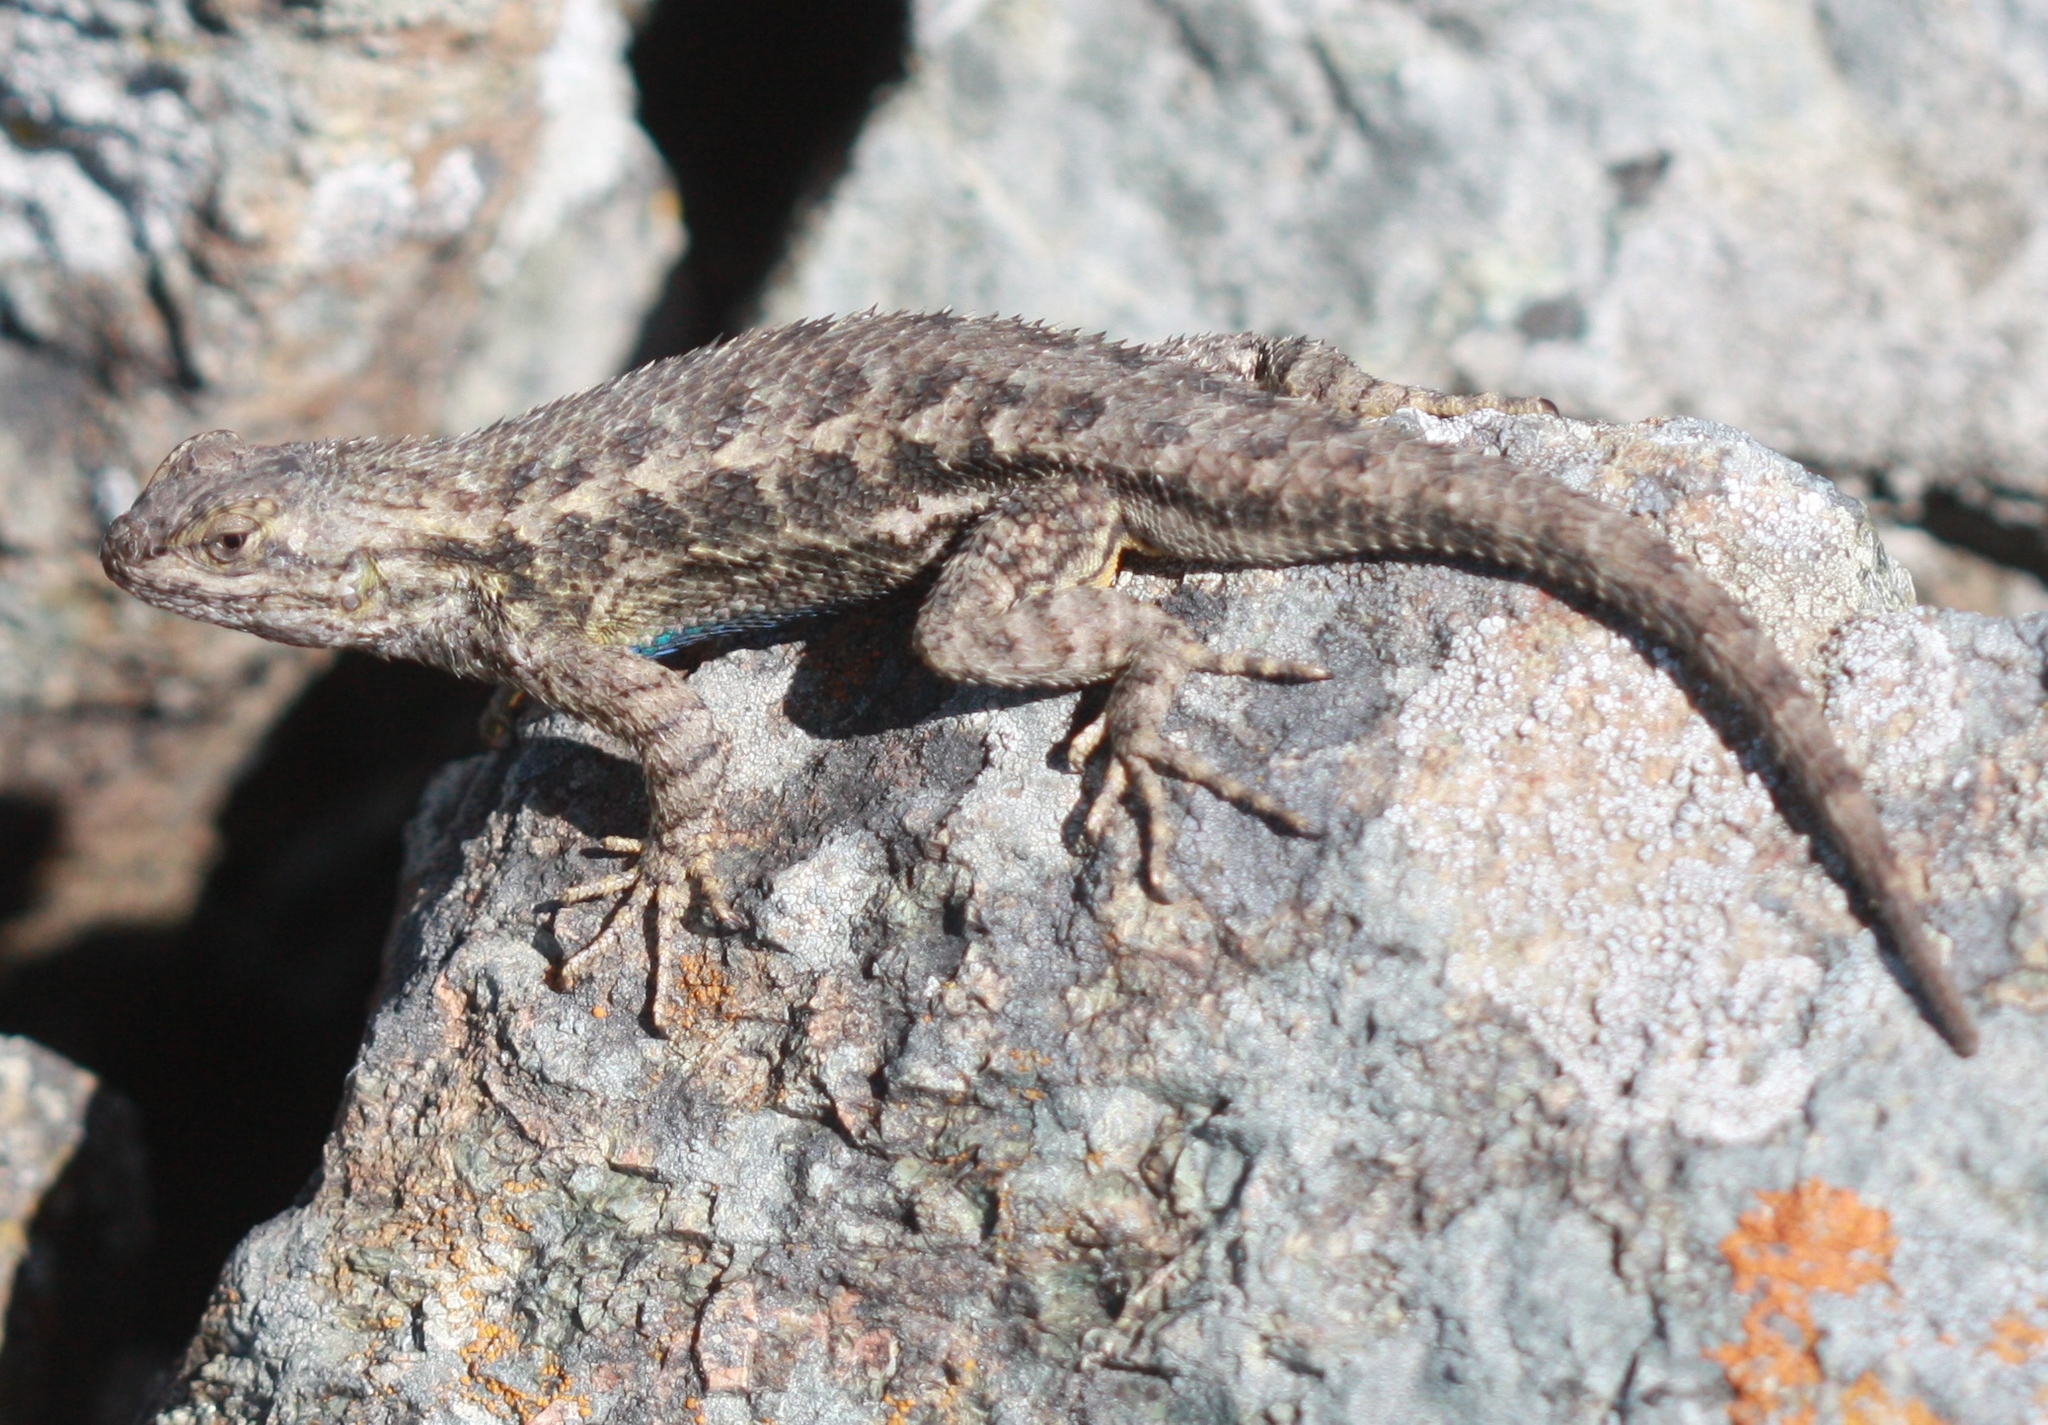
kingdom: Animalia
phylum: Chordata
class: Squamata
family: Phrynosomatidae
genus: Sceloporus
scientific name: Sceloporus occidentalis
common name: Western fence lizard
